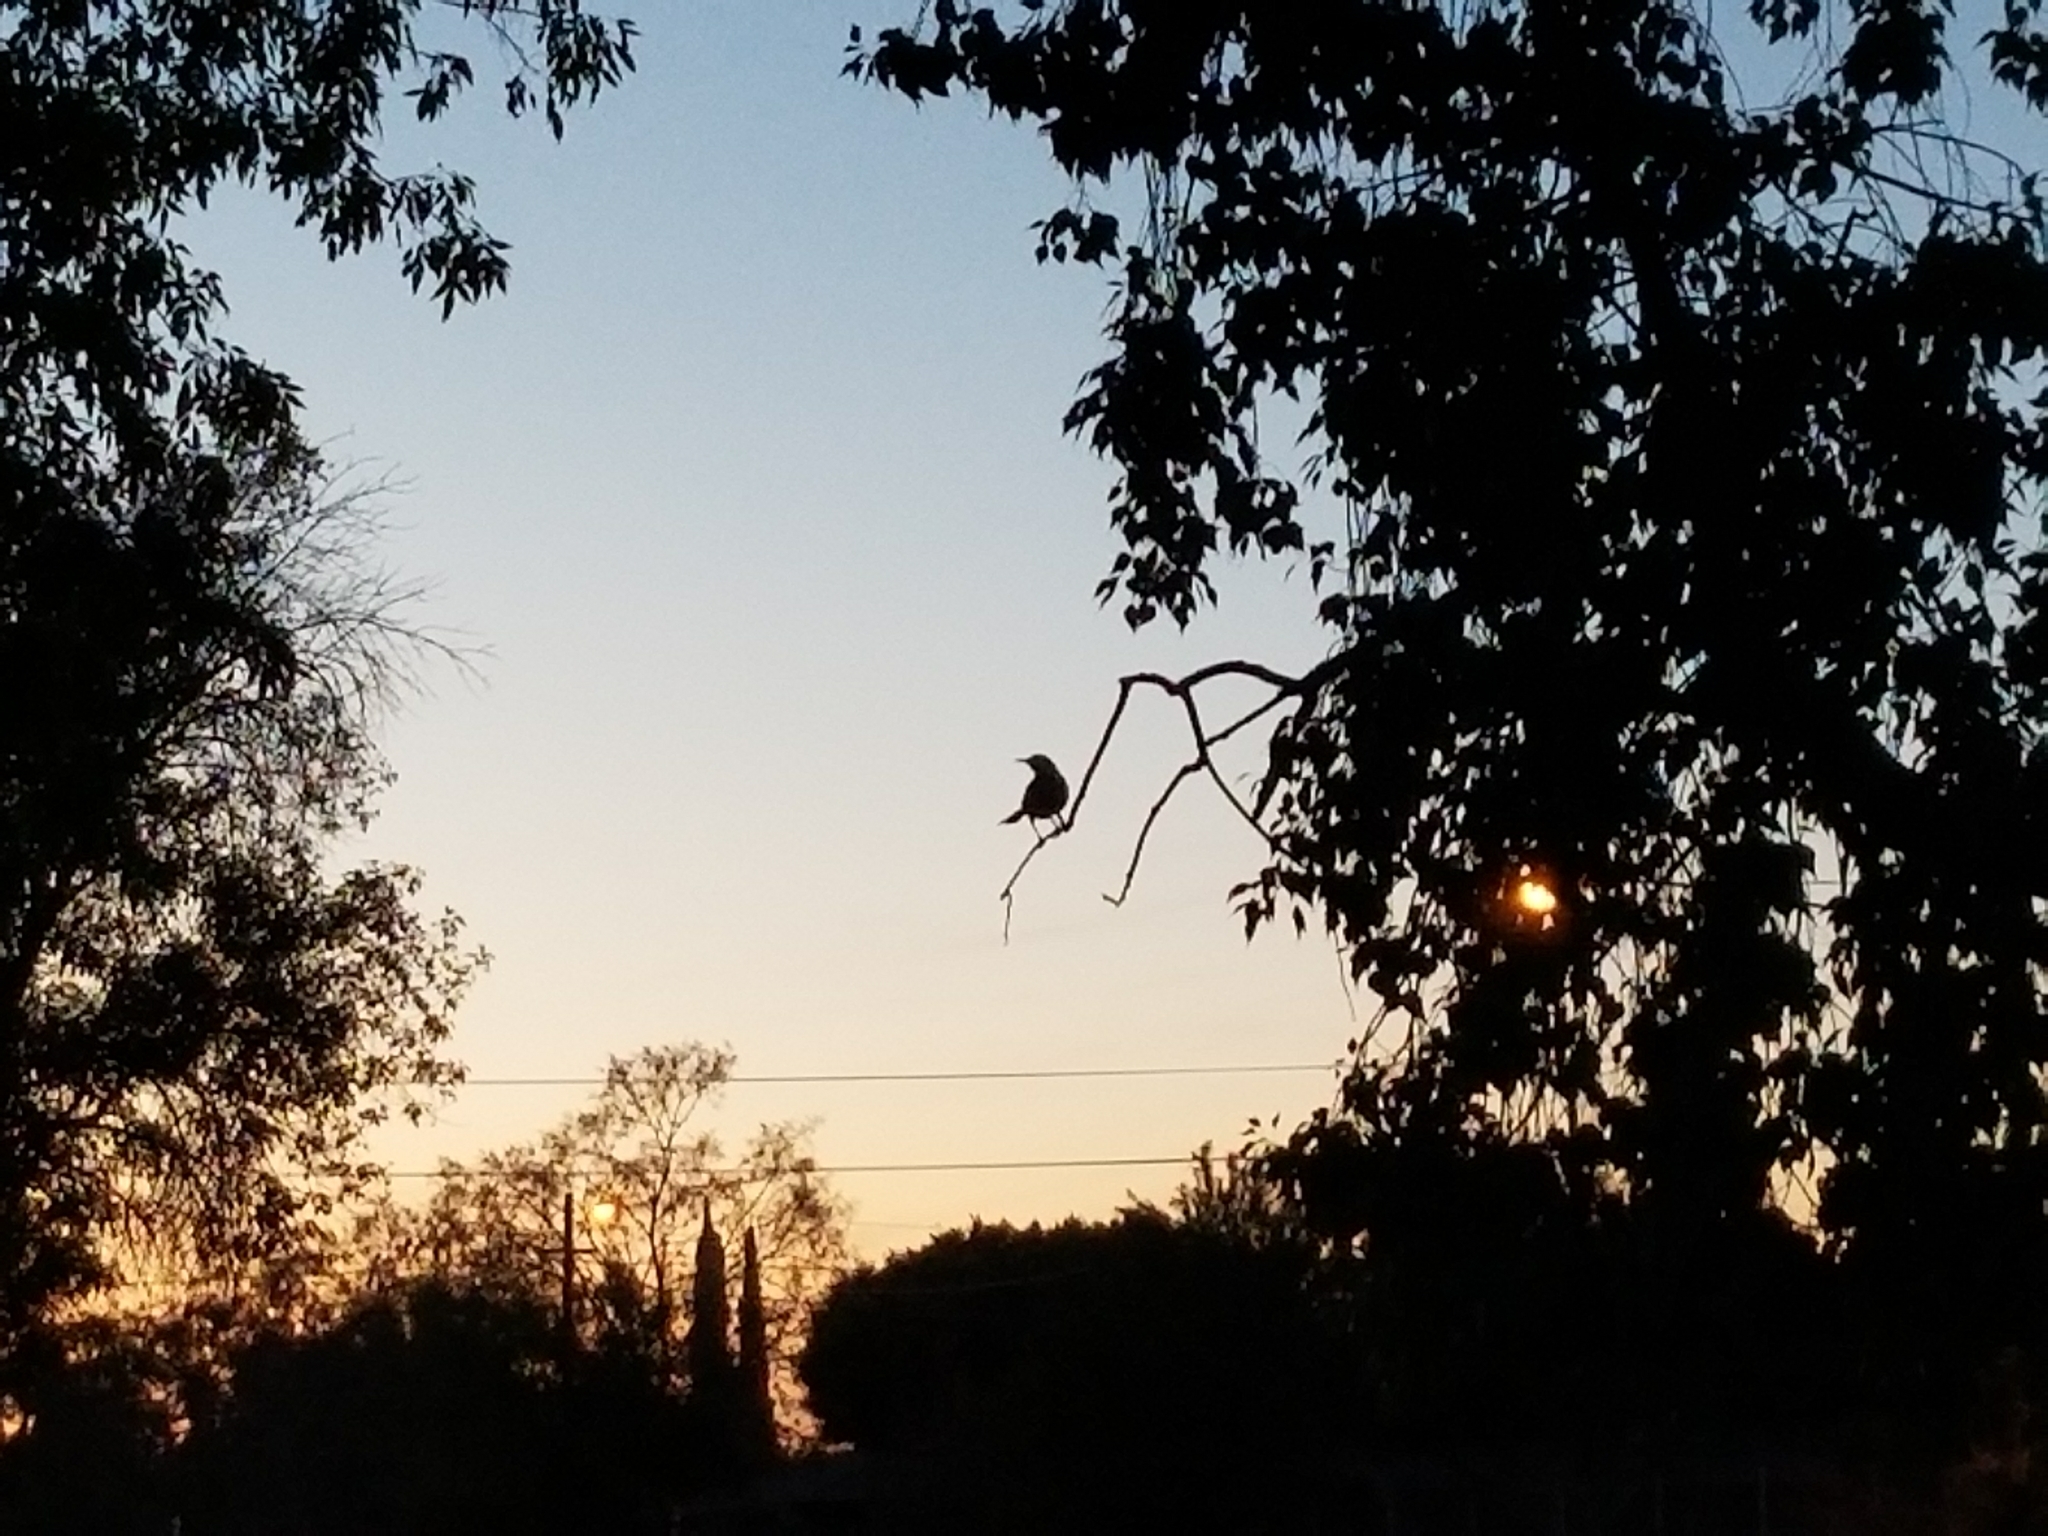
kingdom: Animalia
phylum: Chordata
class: Aves
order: Passeriformes
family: Mimidae
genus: Mimus
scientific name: Mimus polyglottos
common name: Northern mockingbird
